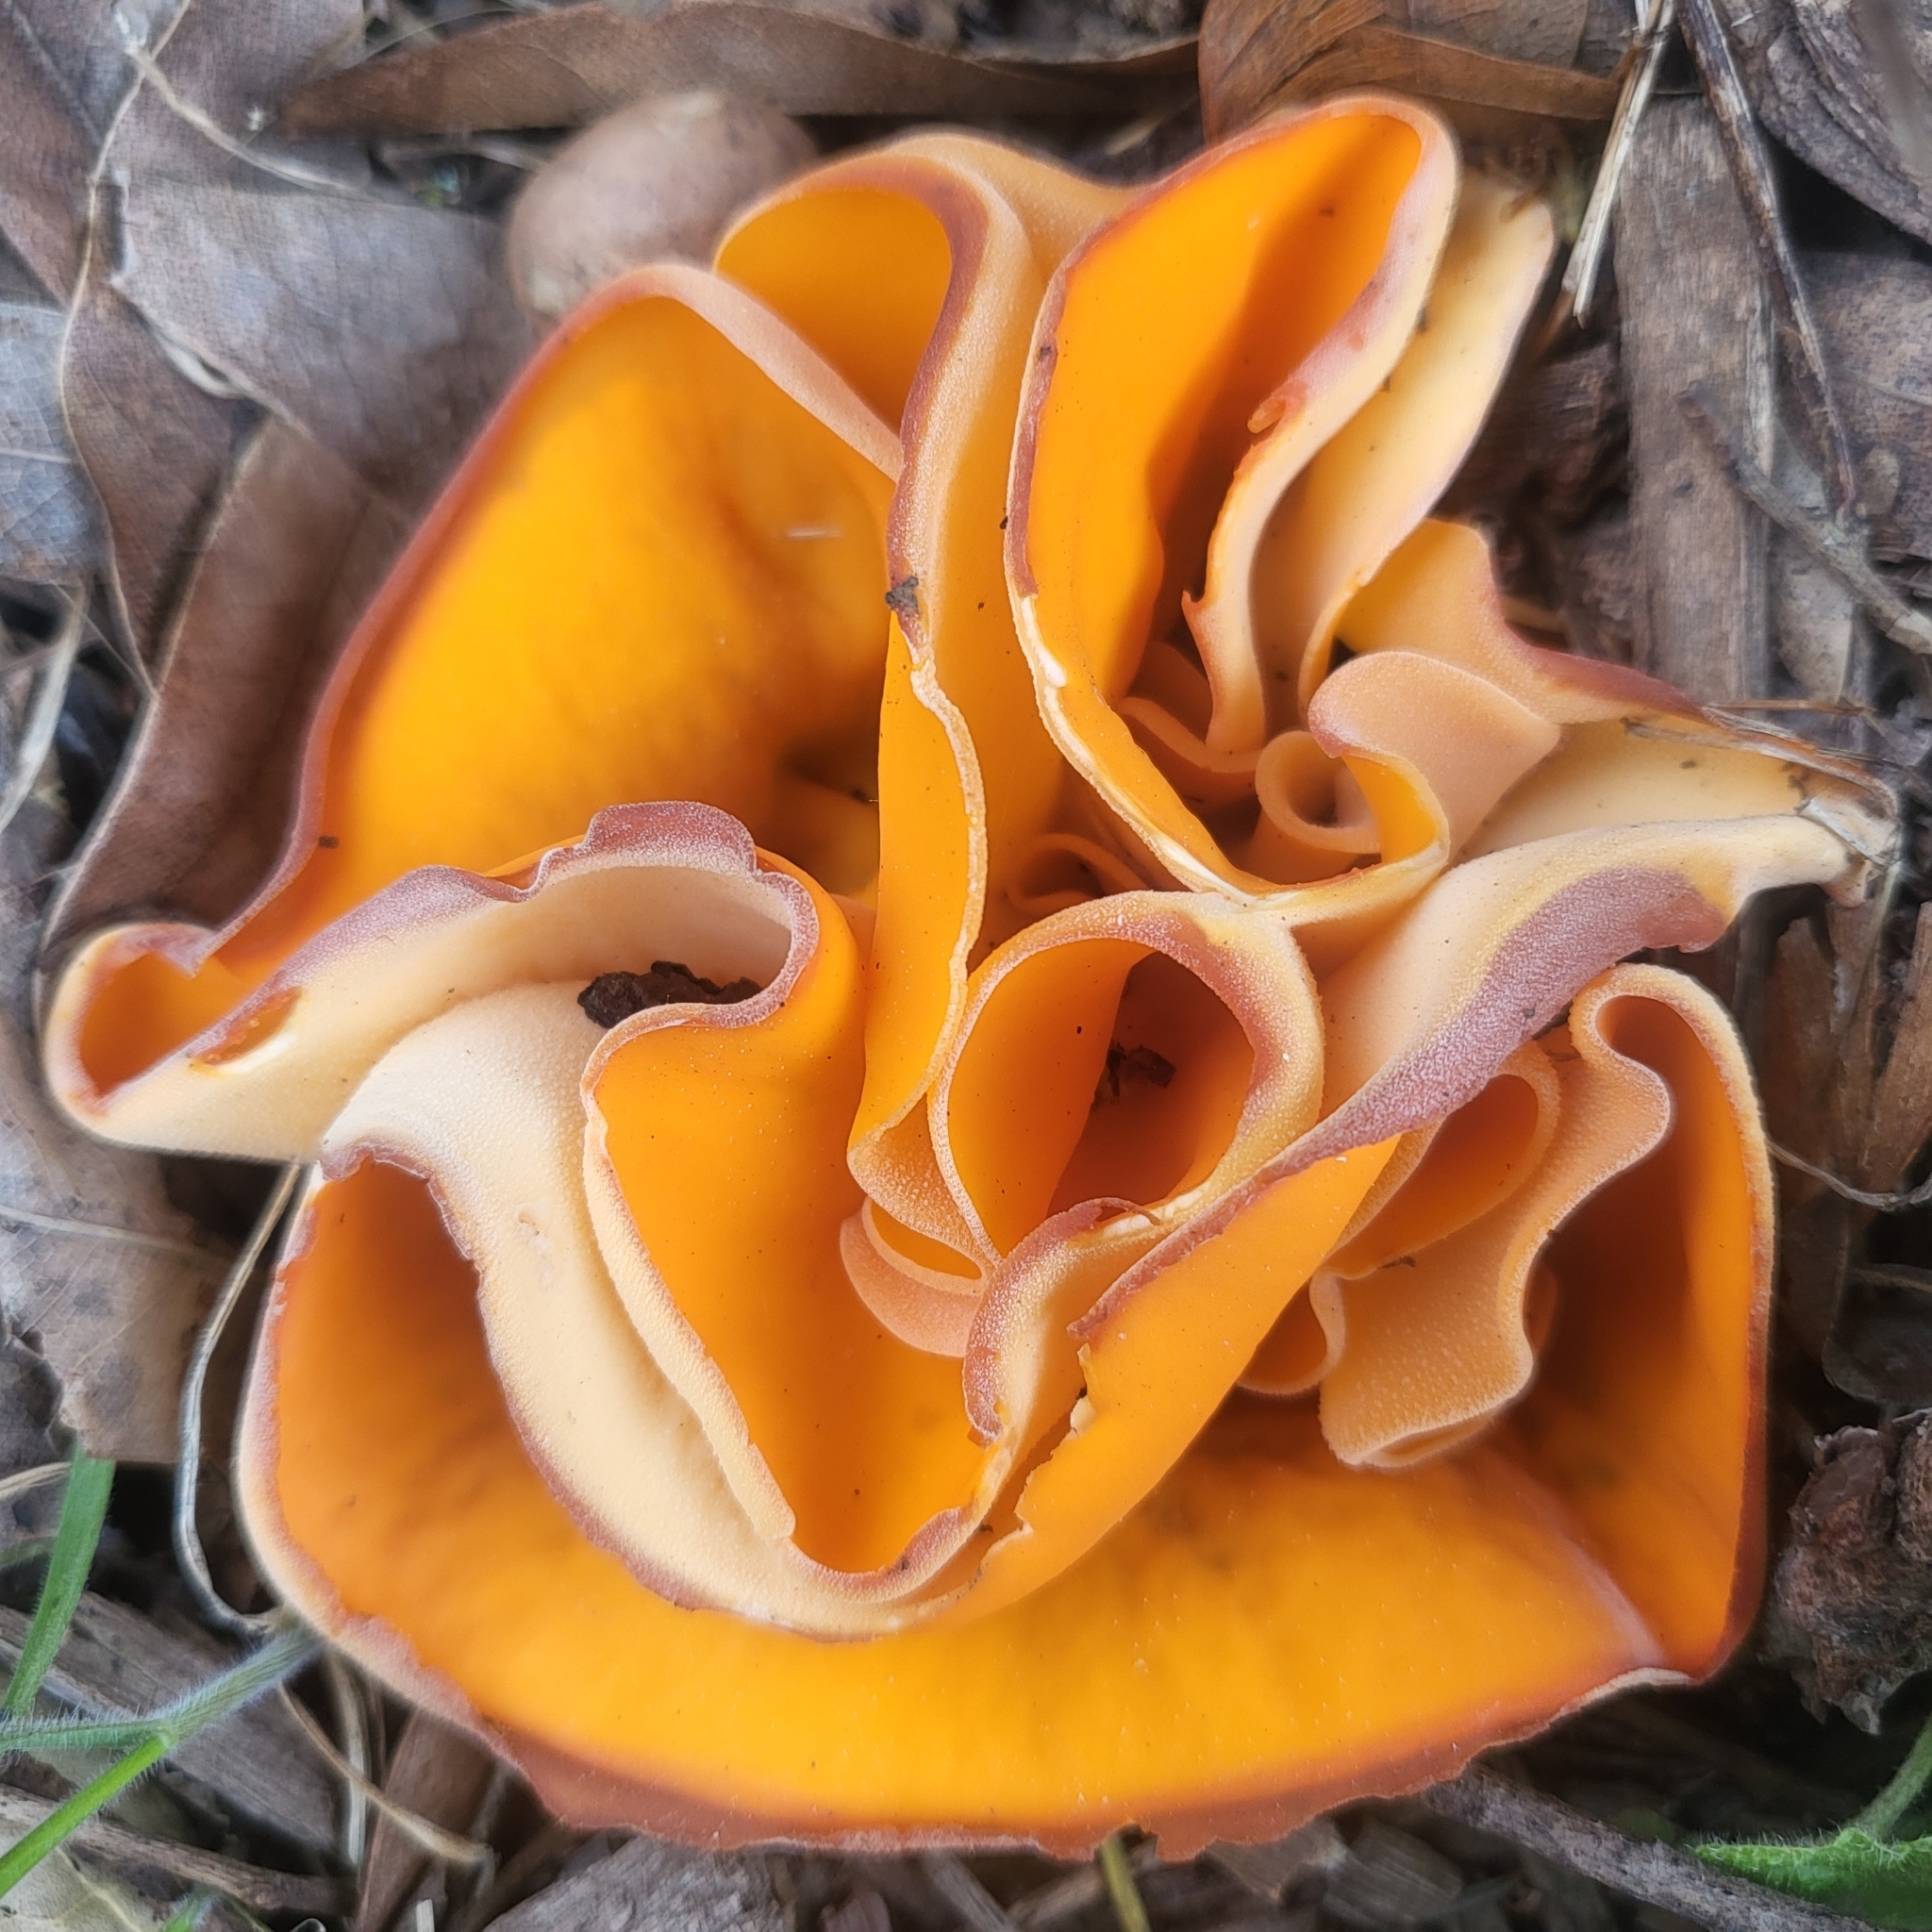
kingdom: Fungi
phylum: Ascomycota
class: Pezizomycetes
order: Pezizales
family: Pyronemataceae
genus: Aleuria
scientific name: Aleuria aurantia
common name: Orange peel fungus
